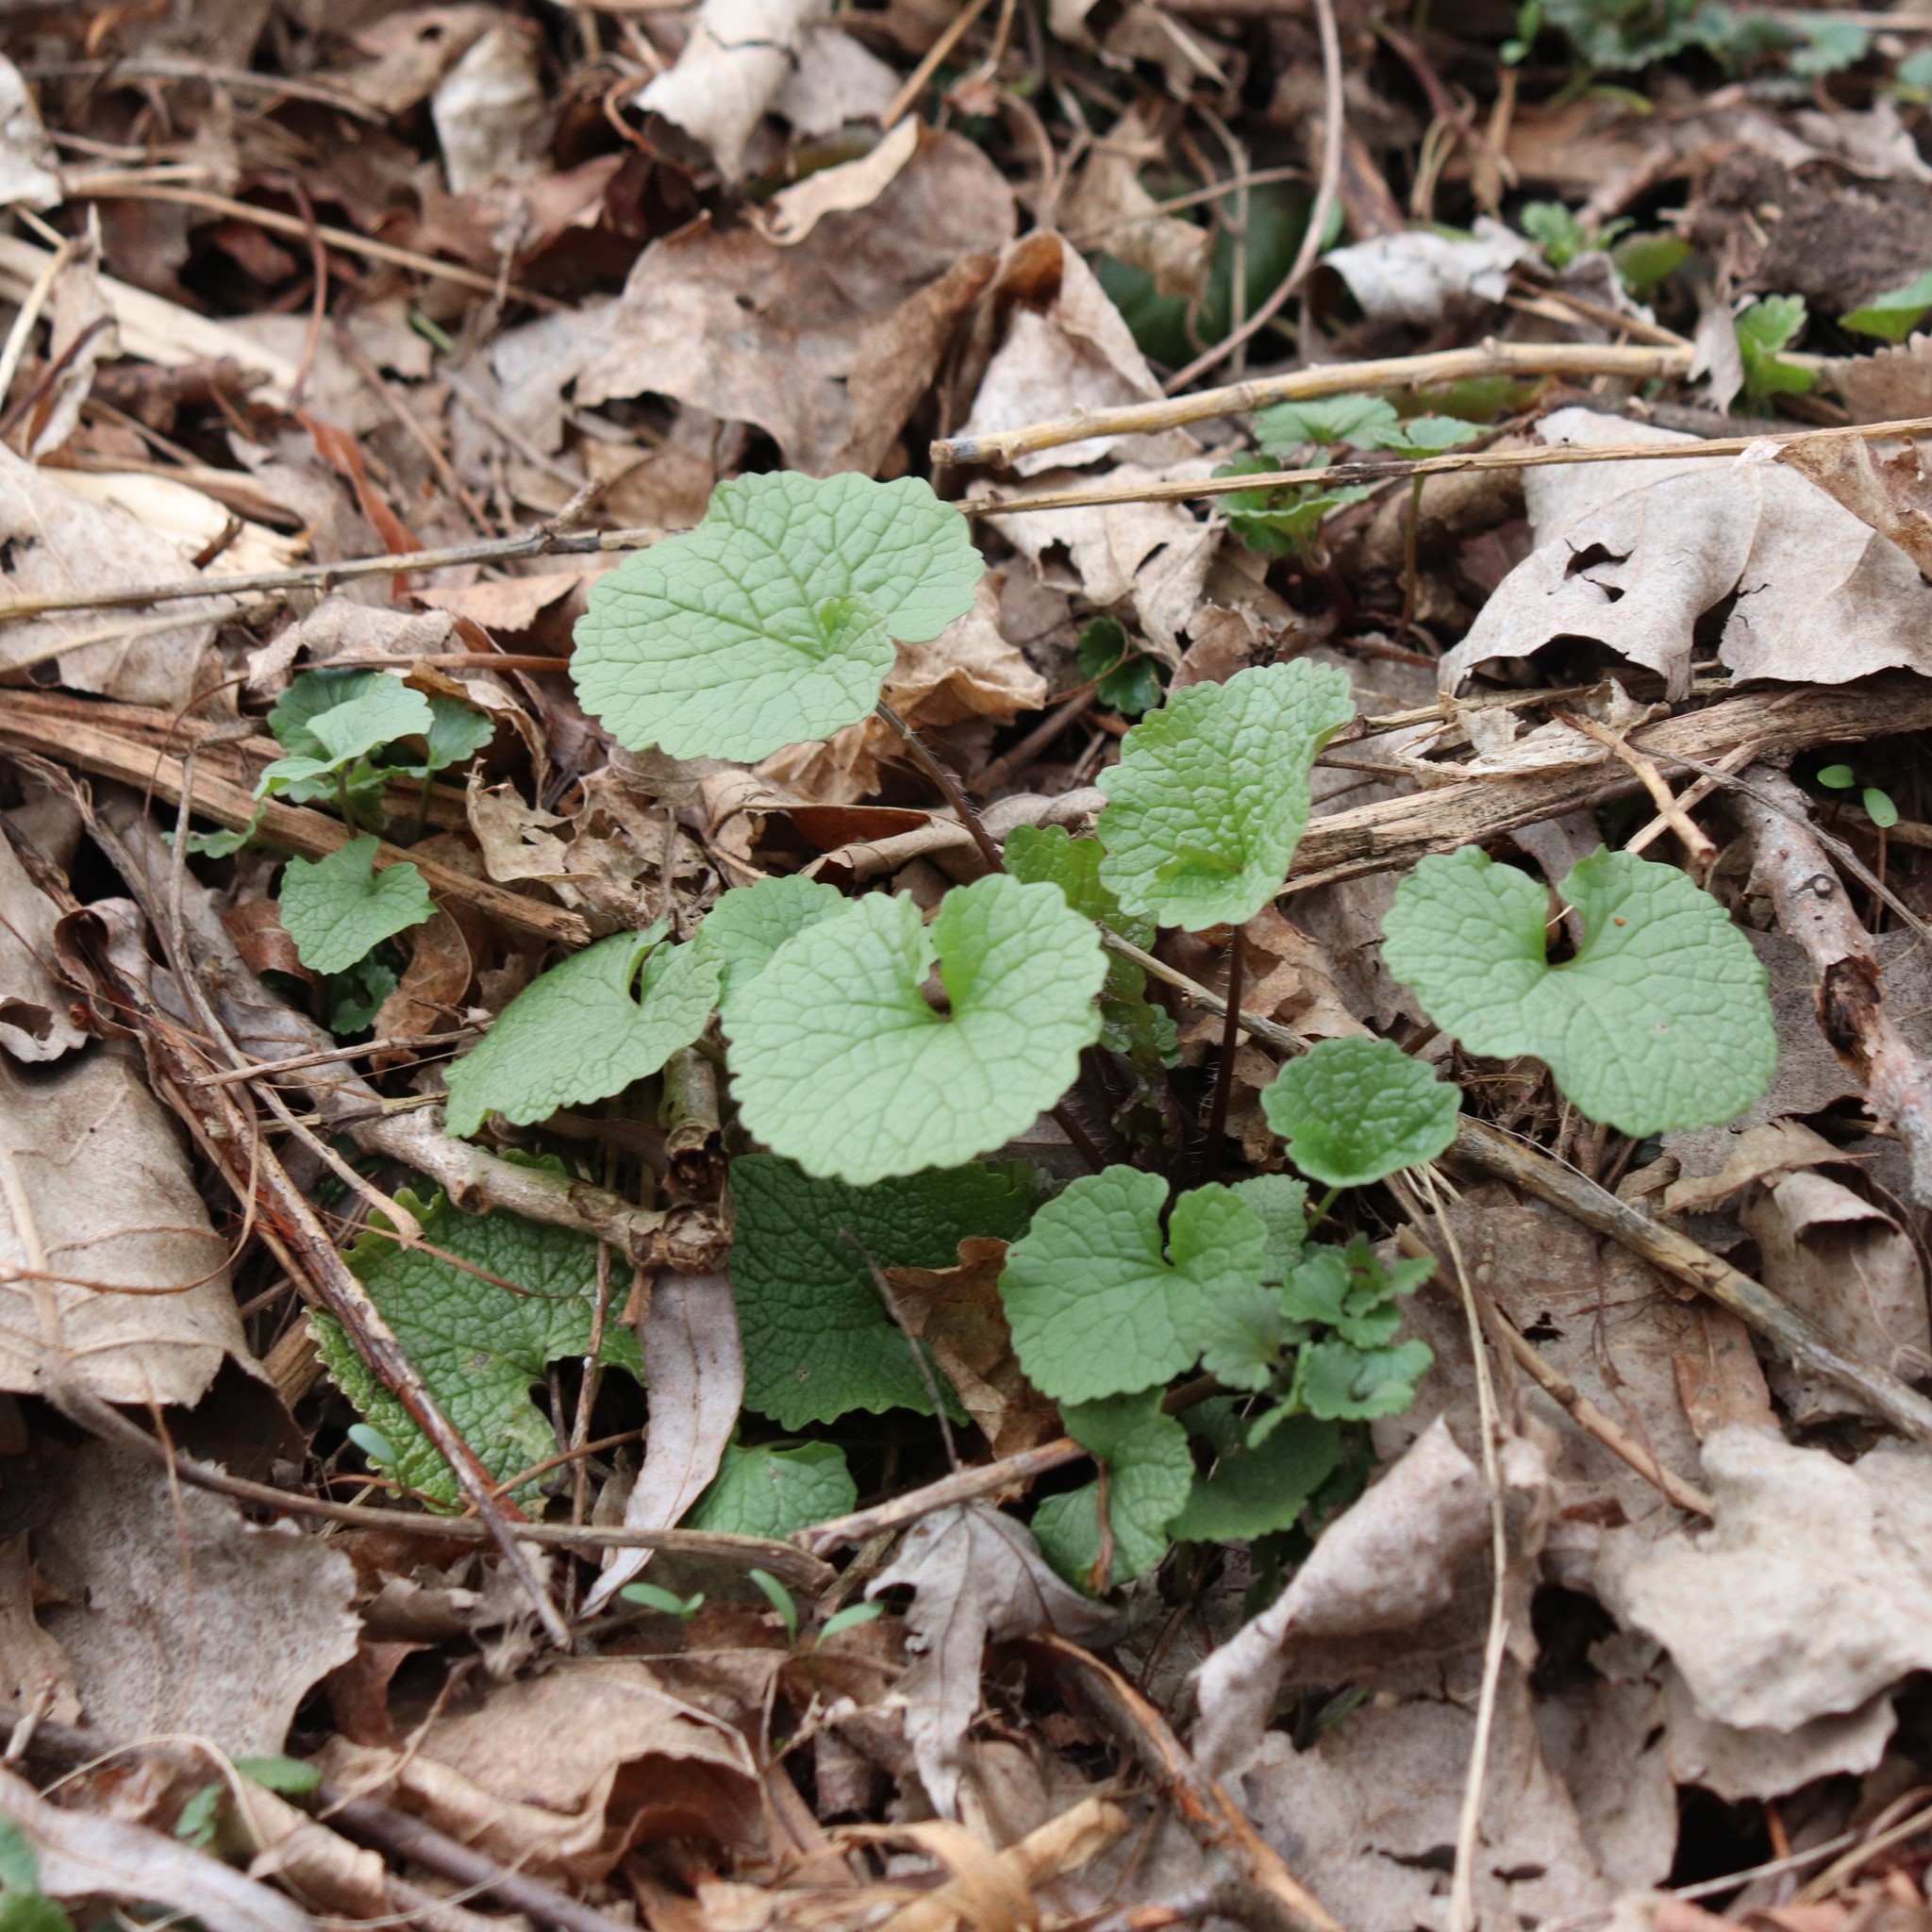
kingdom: Plantae
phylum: Tracheophyta
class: Magnoliopsida
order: Brassicales
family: Brassicaceae
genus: Alliaria
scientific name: Alliaria petiolata
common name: Garlic mustard
